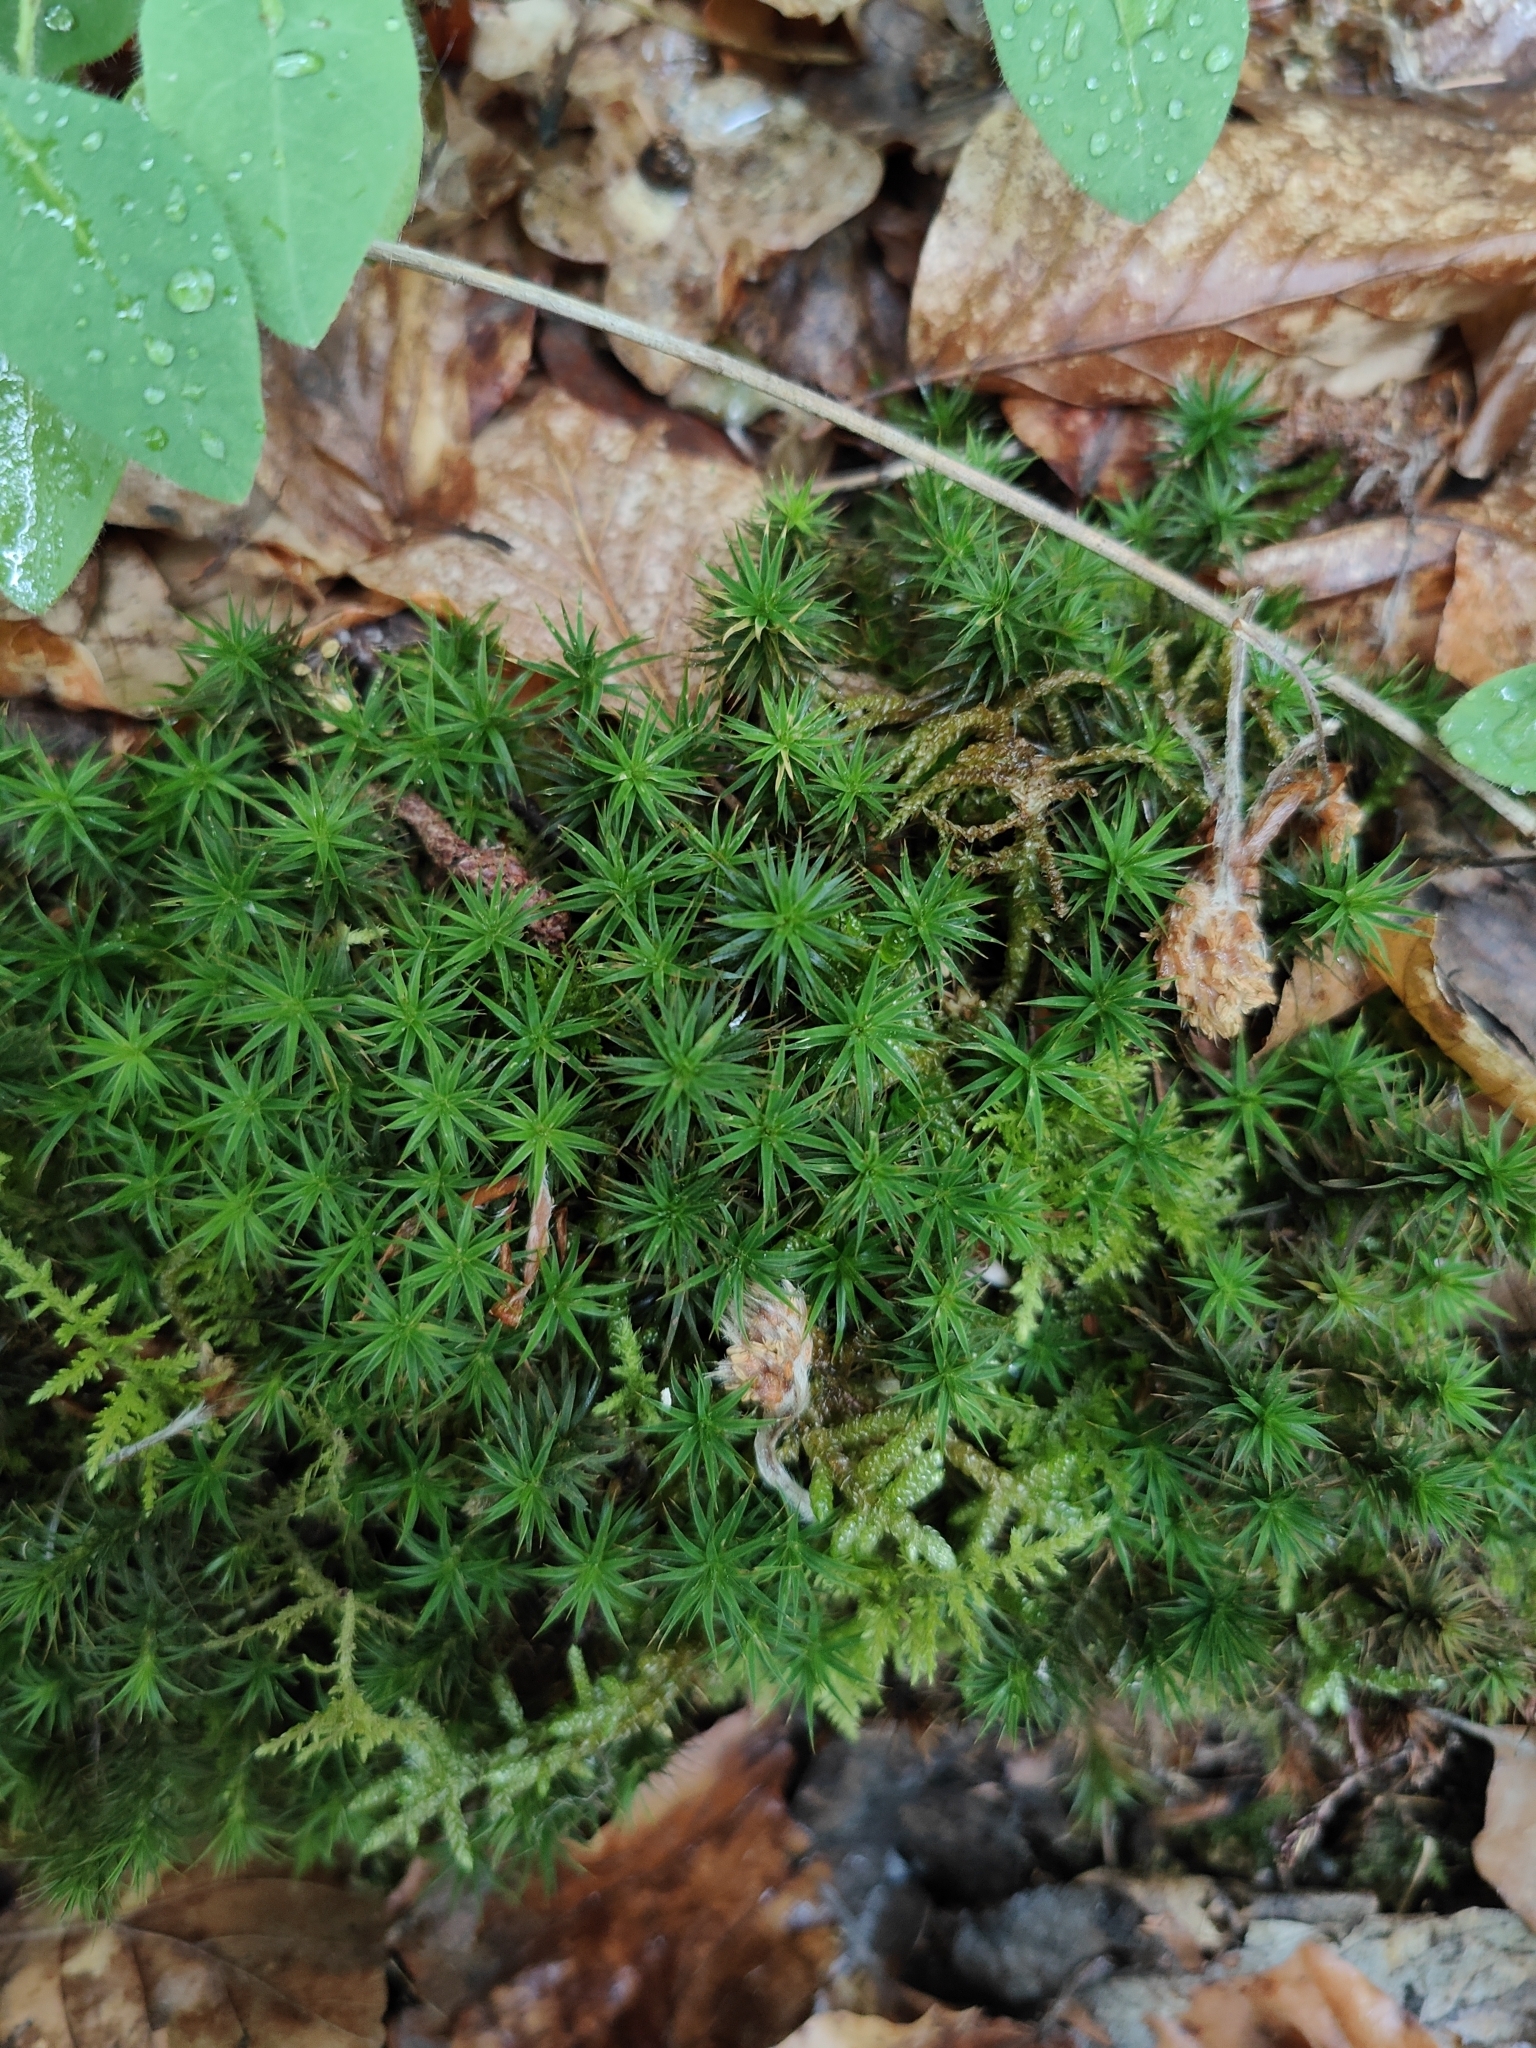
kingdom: Plantae
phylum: Bryophyta
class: Polytrichopsida
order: Polytrichales
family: Polytrichaceae
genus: Polytrichum
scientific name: Polytrichum formosum
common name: Bank haircap moss
